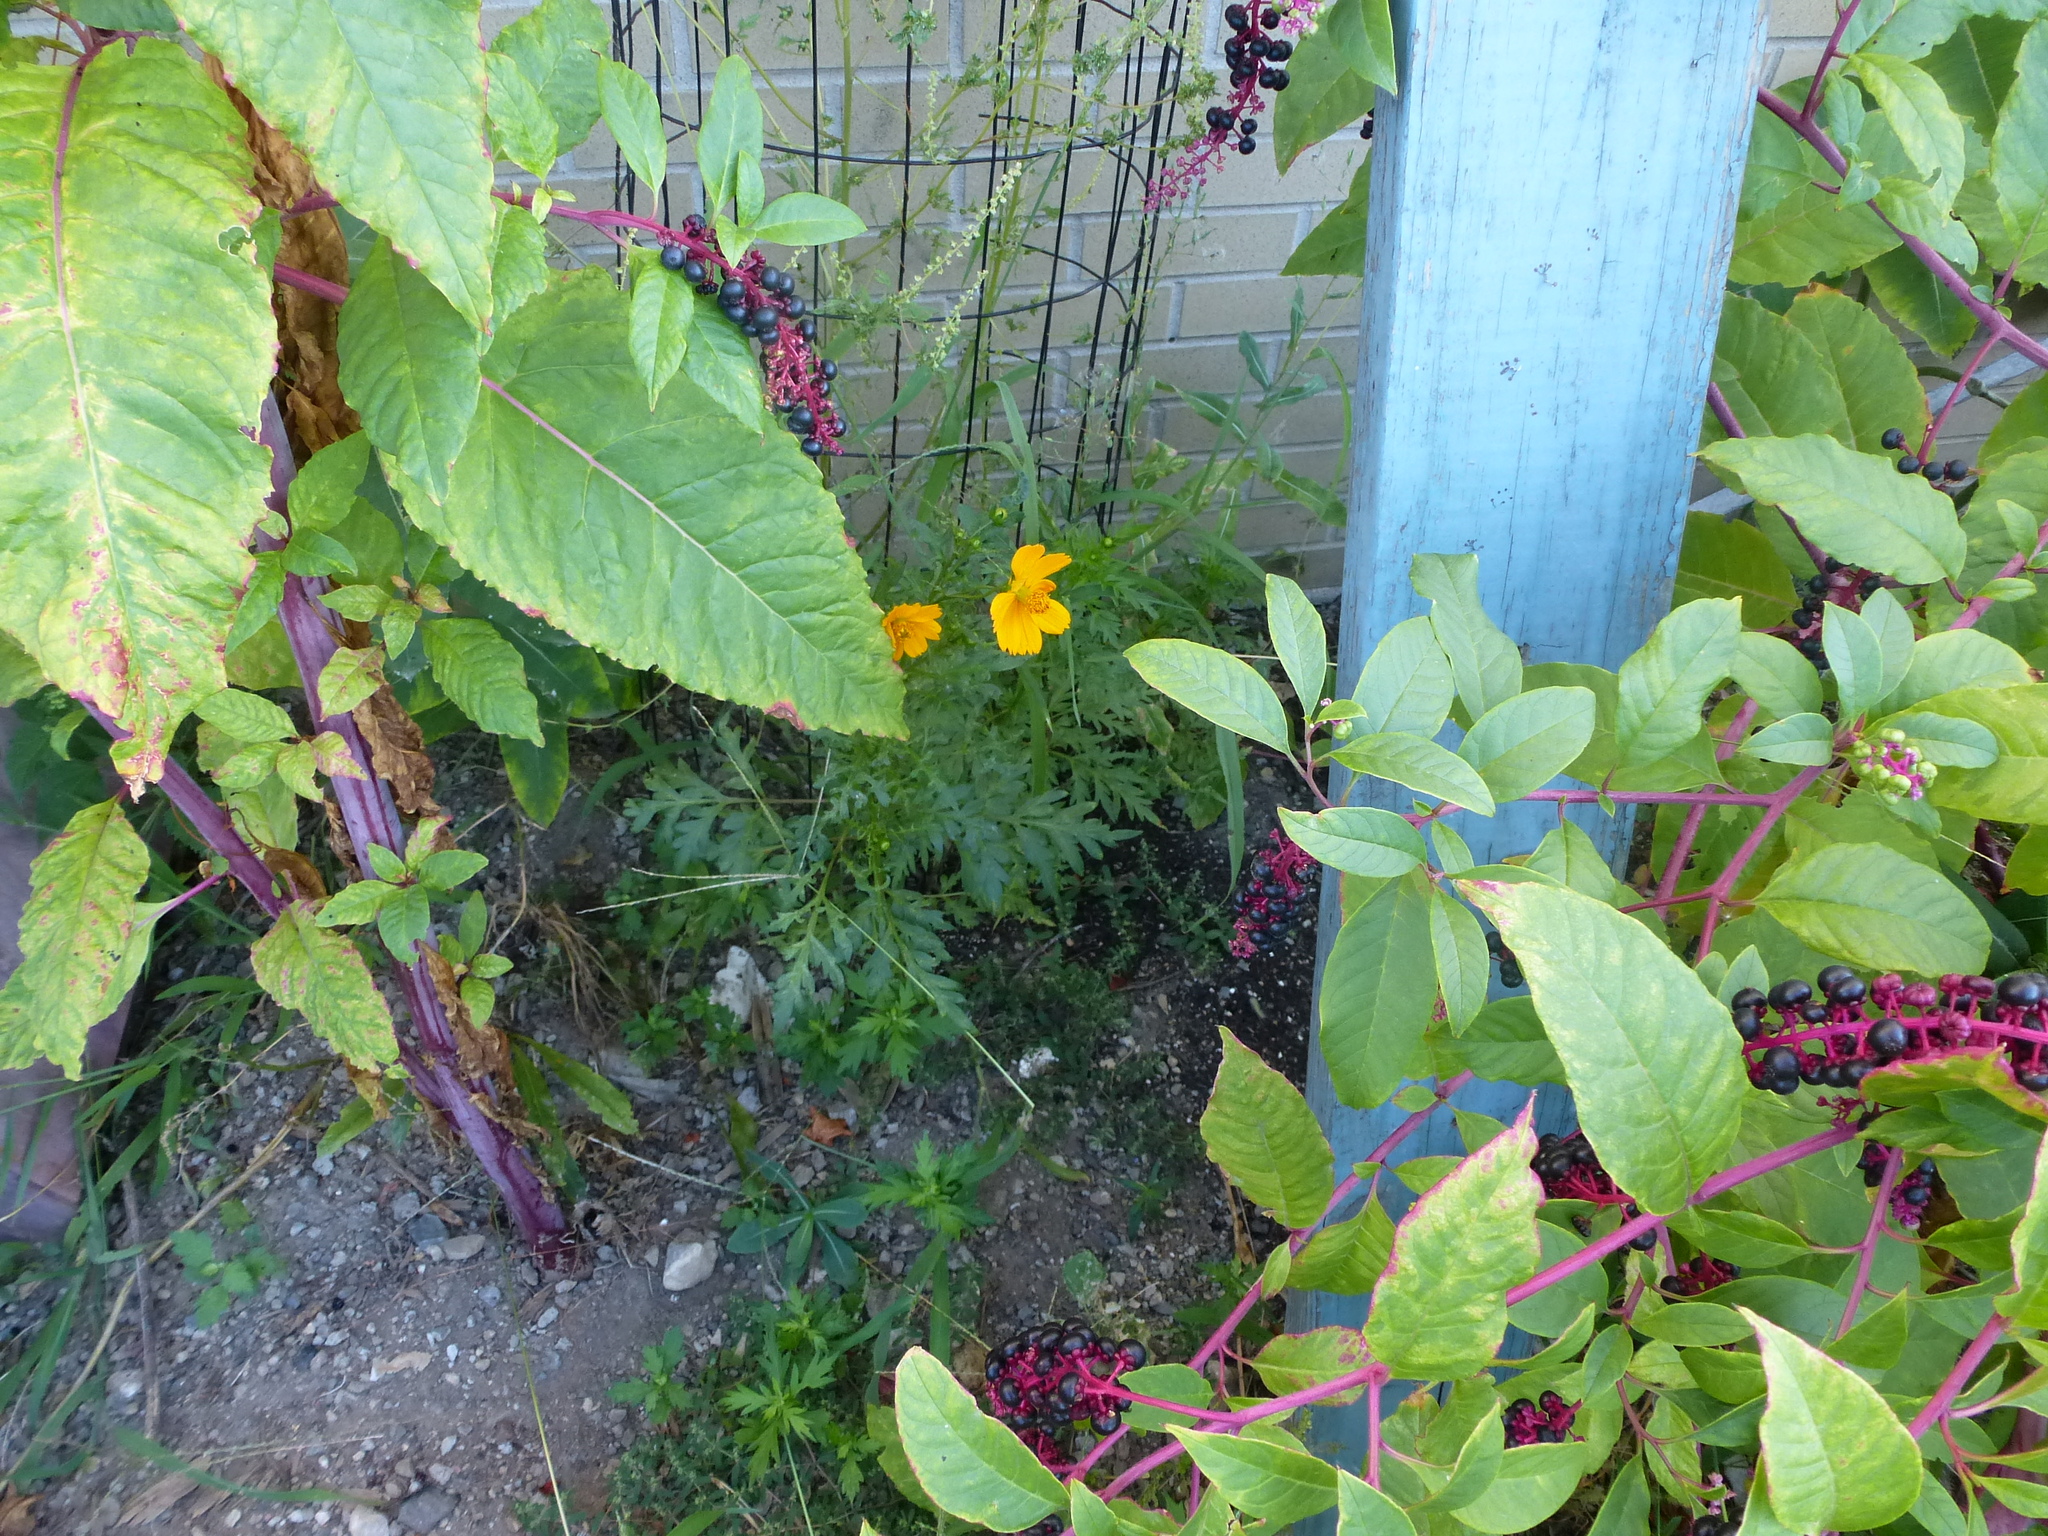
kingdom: Plantae
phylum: Tracheophyta
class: Magnoliopsida
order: Asterales
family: Asteraceae
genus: Cosmos
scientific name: Cosmos sulphureus
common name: Sulphur cosmos
